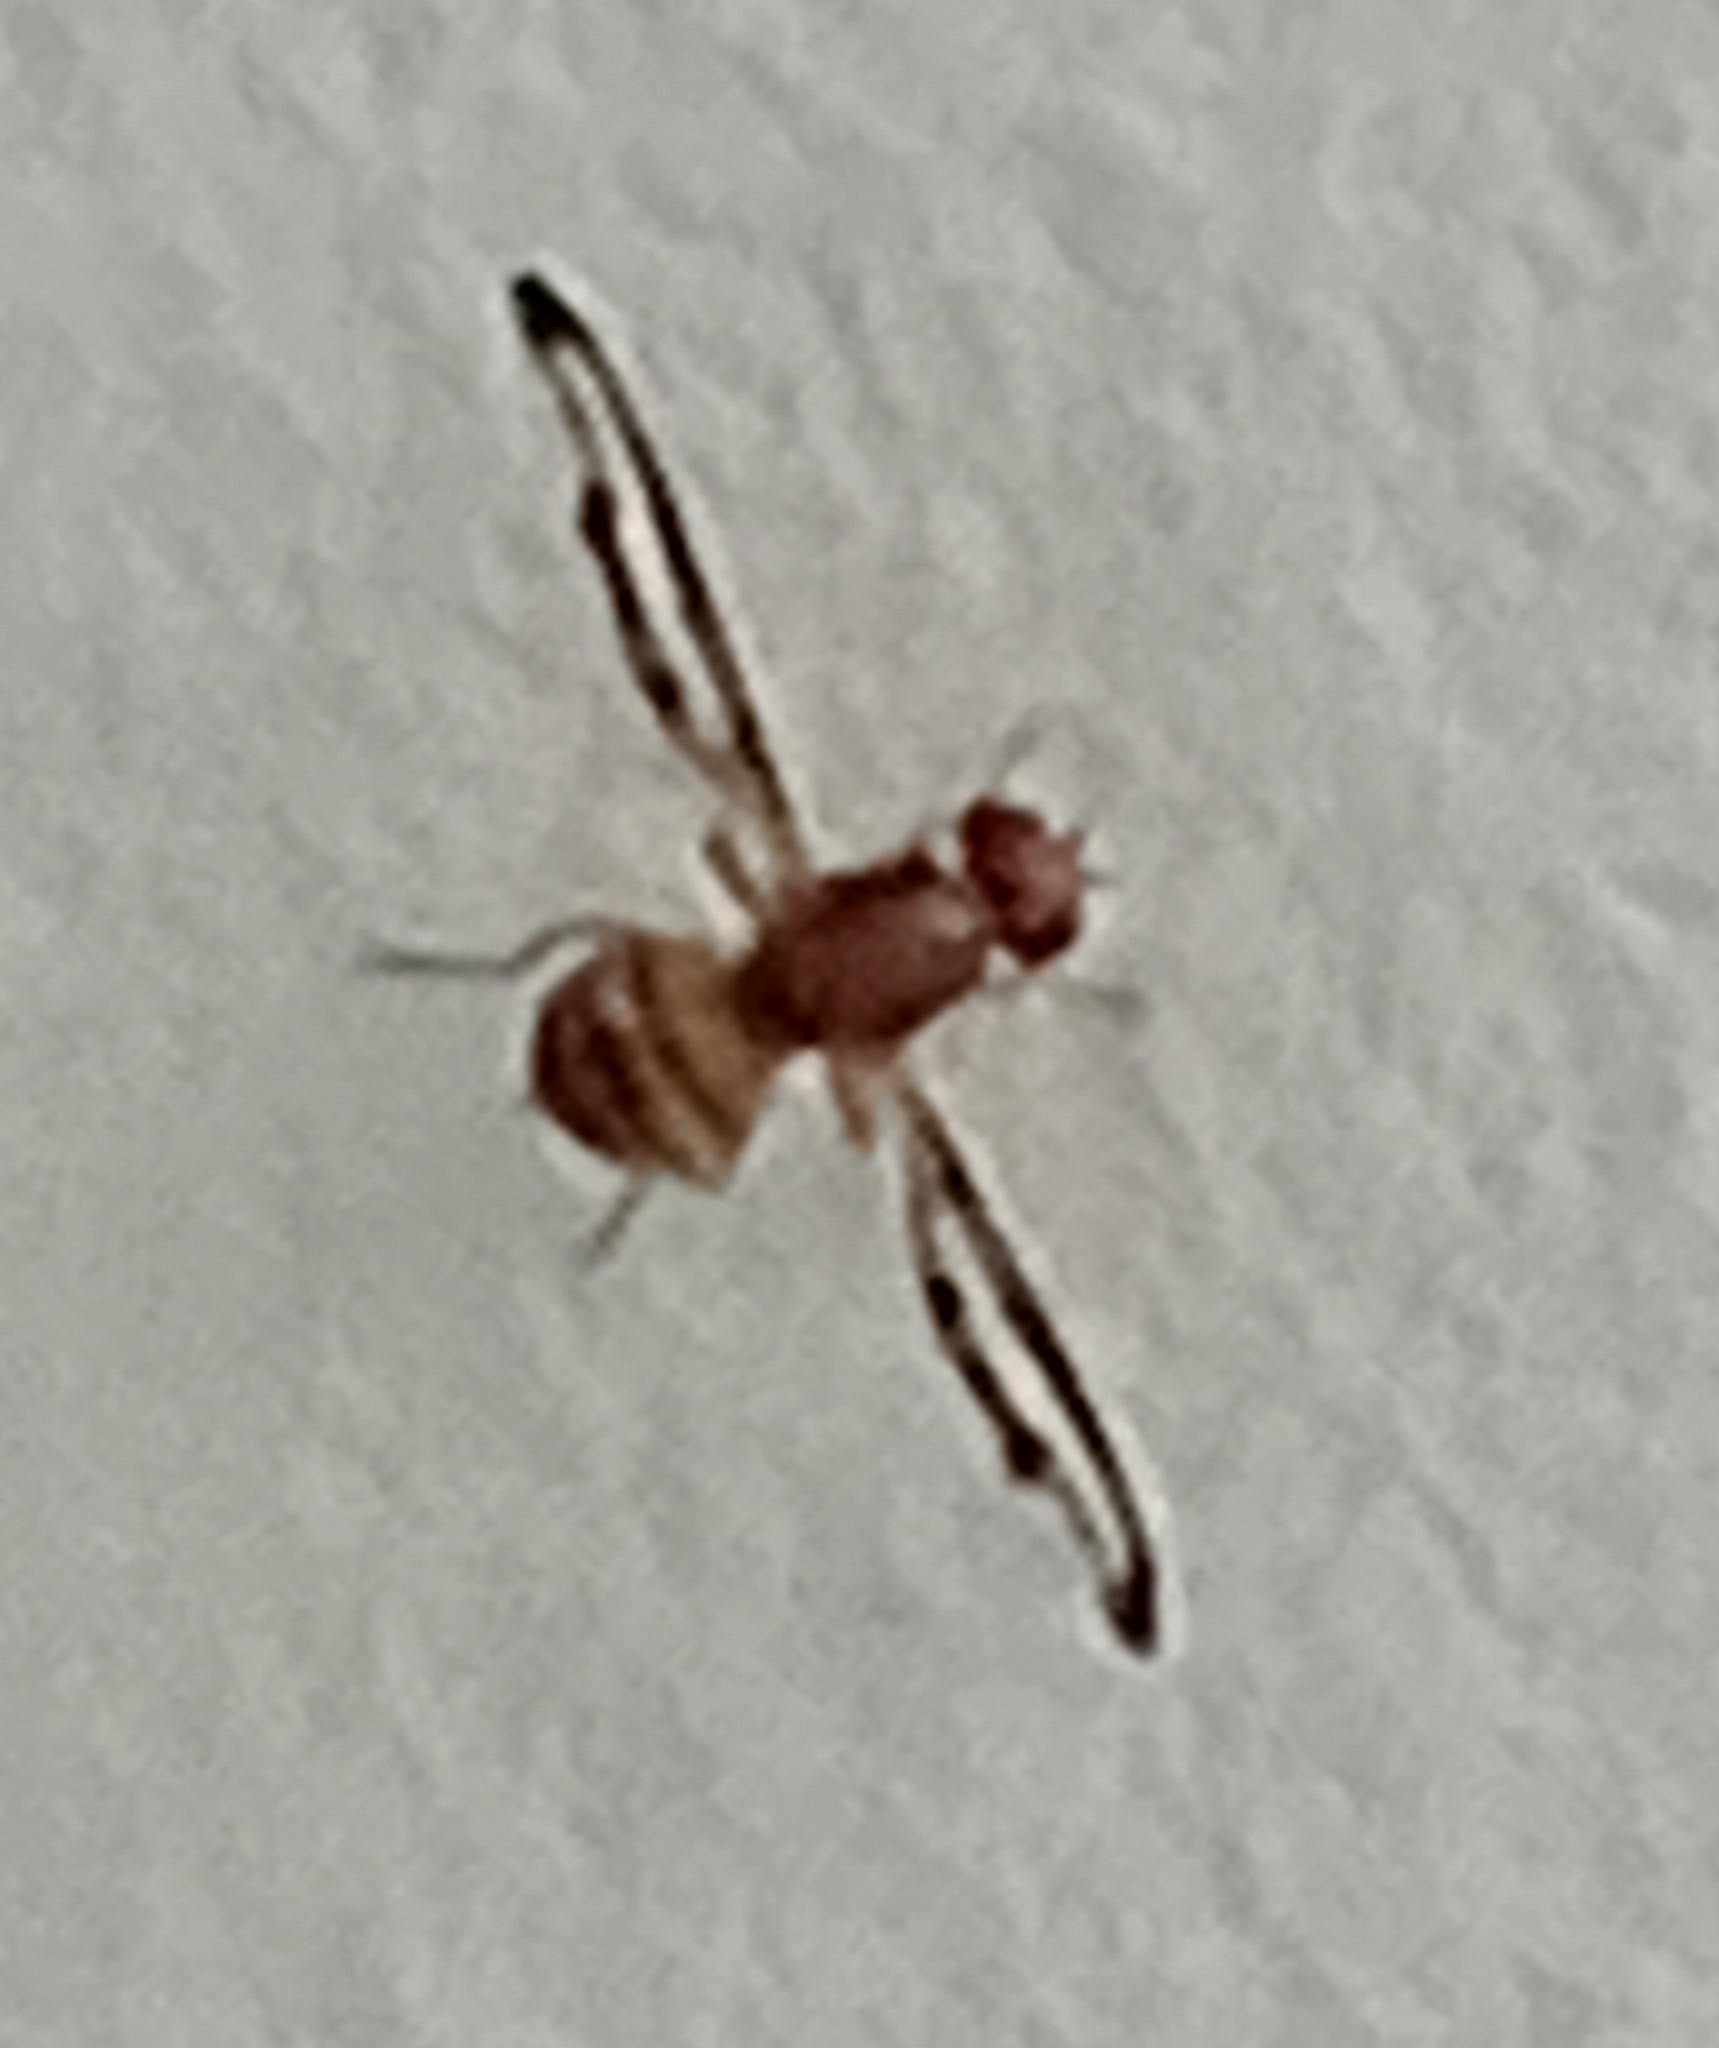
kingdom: Animalia
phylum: Arthropoda
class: Insecta
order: Diptera
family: Pallopteridae
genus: Toxonevra
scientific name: Toxonevra muliebris
